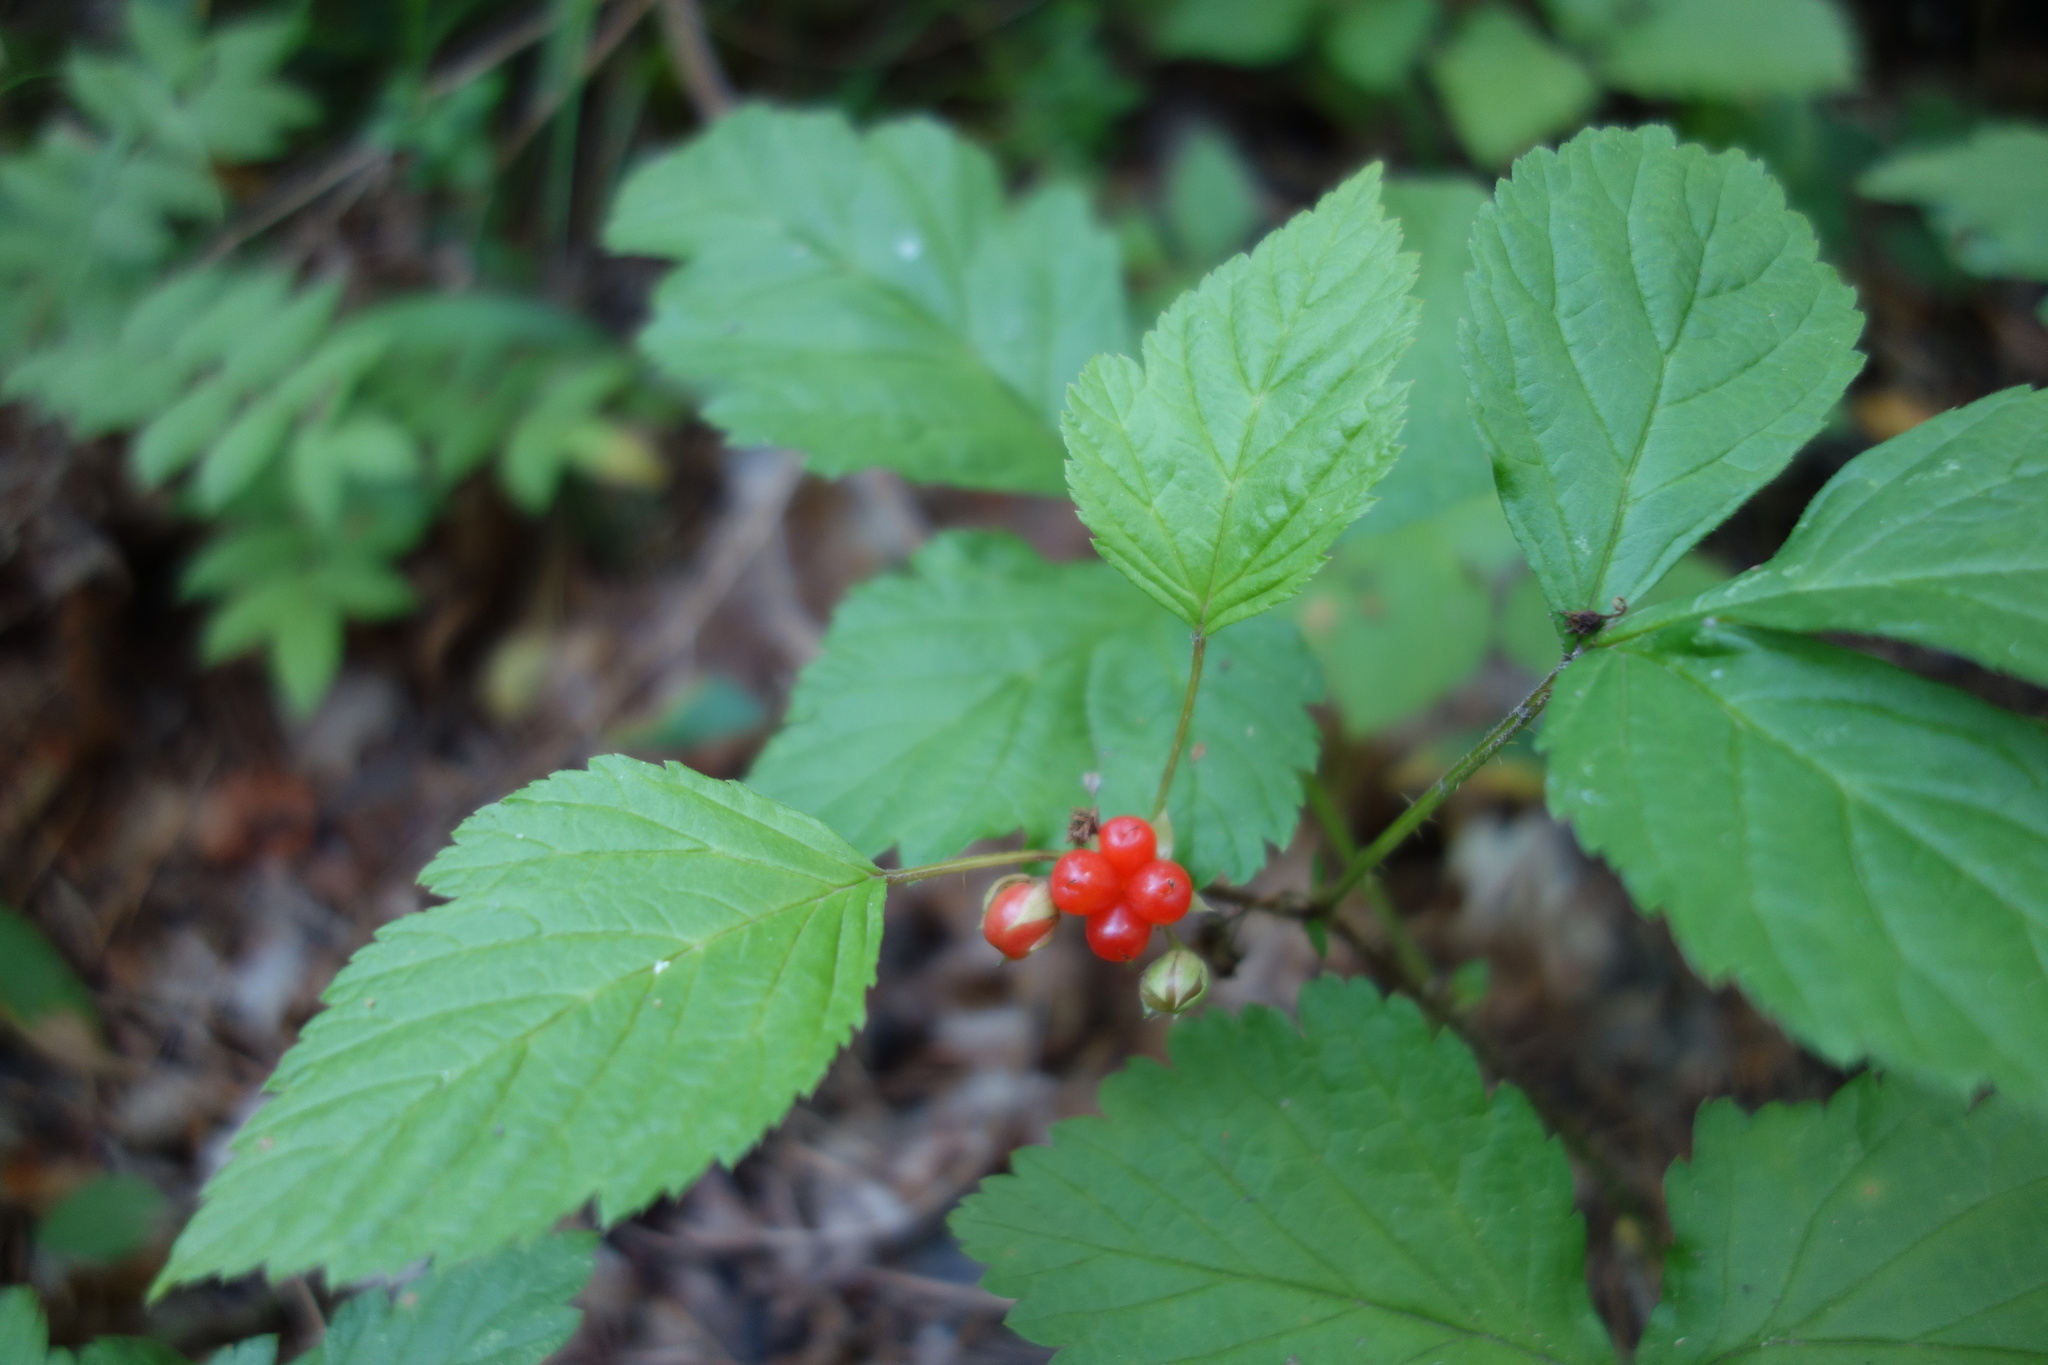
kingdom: Plantae
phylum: Tracheophyta
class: Magnoliopsida
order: Rosales
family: Rosaceae
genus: Rubus
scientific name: Rubus saxatilis
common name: Stone bramble
